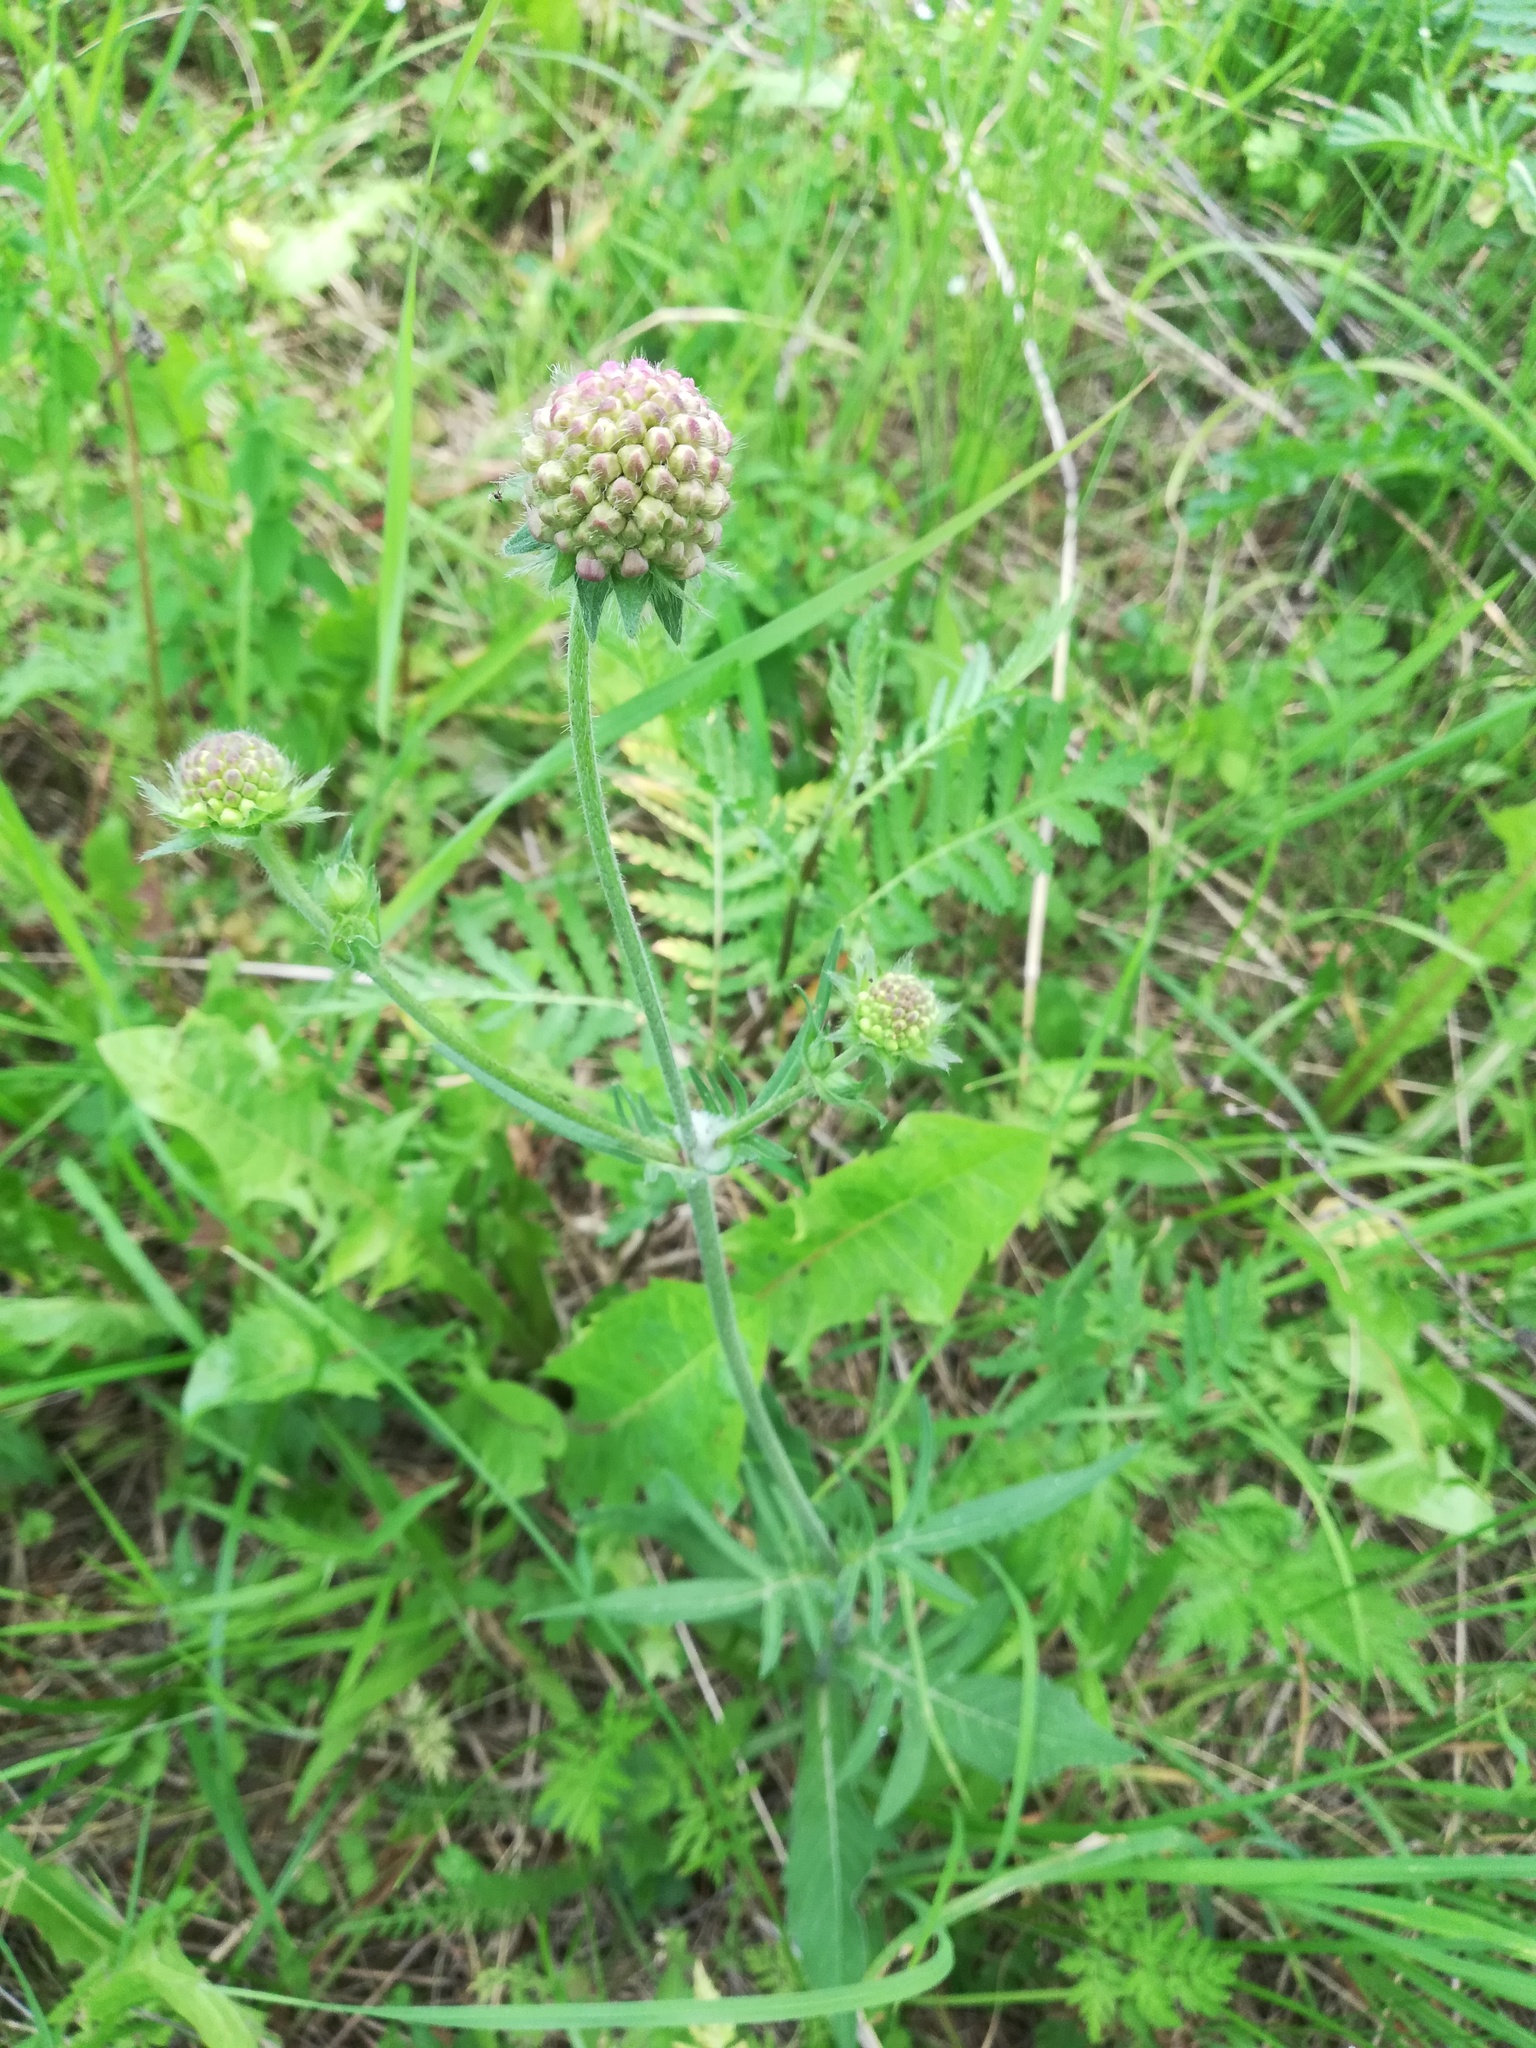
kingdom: Plantae
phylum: Tracheophyta
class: Magnoliopsida
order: Dipsacales
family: Caprifoliaceae
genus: Knautia
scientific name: Knautia arvensis
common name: Field scabiosa
